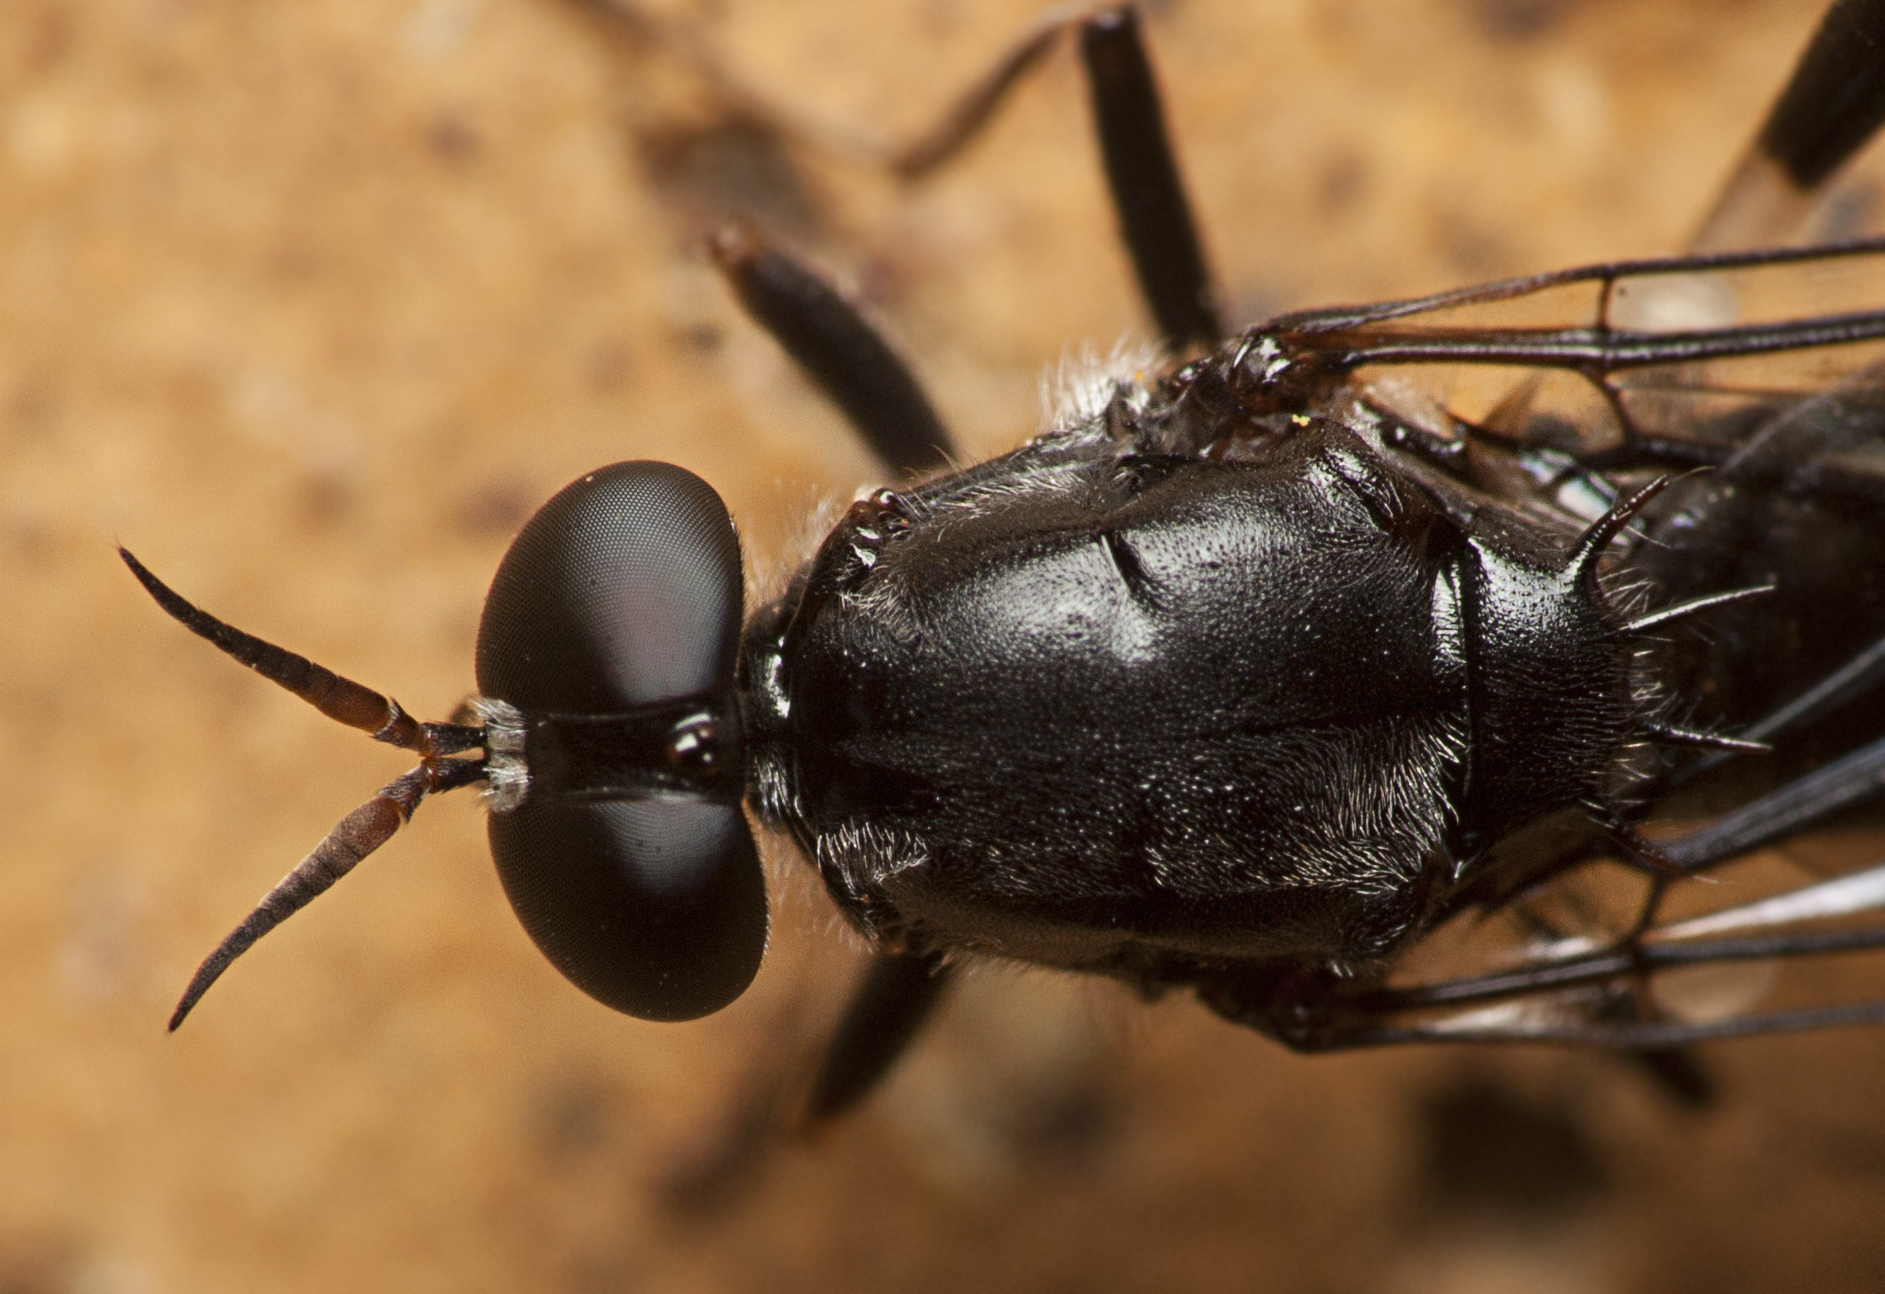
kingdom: Animalia
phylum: Arthropoda
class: Insecta
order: Diptera
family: Stratiomyidae
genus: Exaireta
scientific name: Exaireta spinigera
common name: Blue soldier fly
